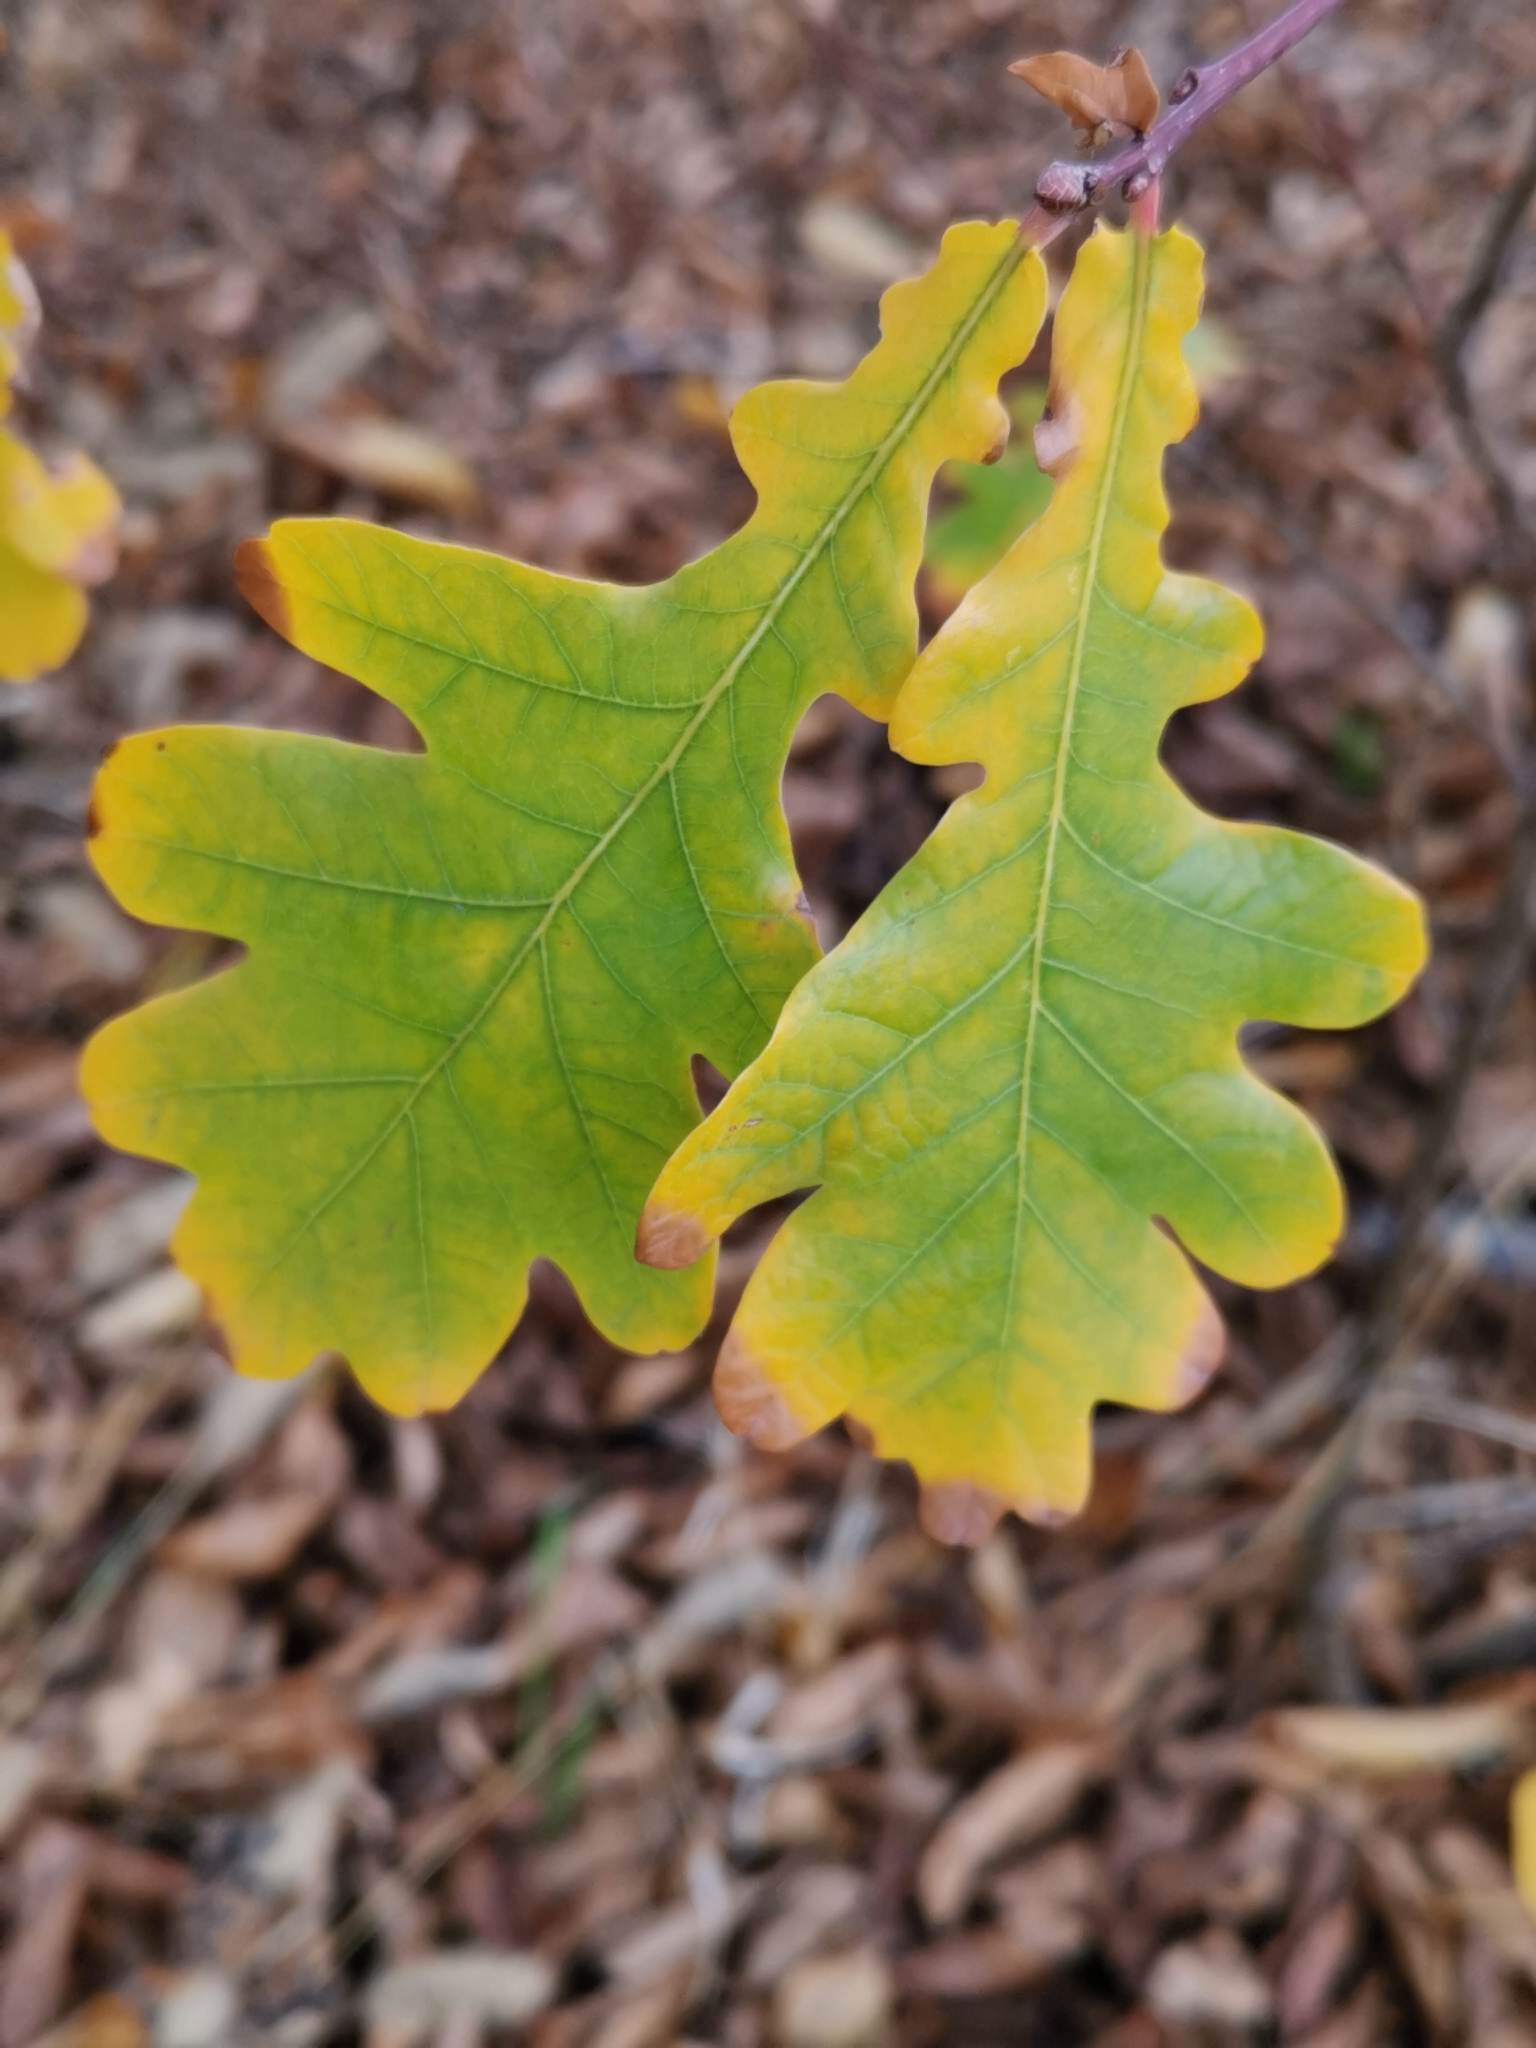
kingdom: Plantae
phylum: Tracheophyta
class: Magnoliopsida
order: Fagales
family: Fagaceae
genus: Quercus
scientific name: Quercus robur
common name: Pedunculate oak
